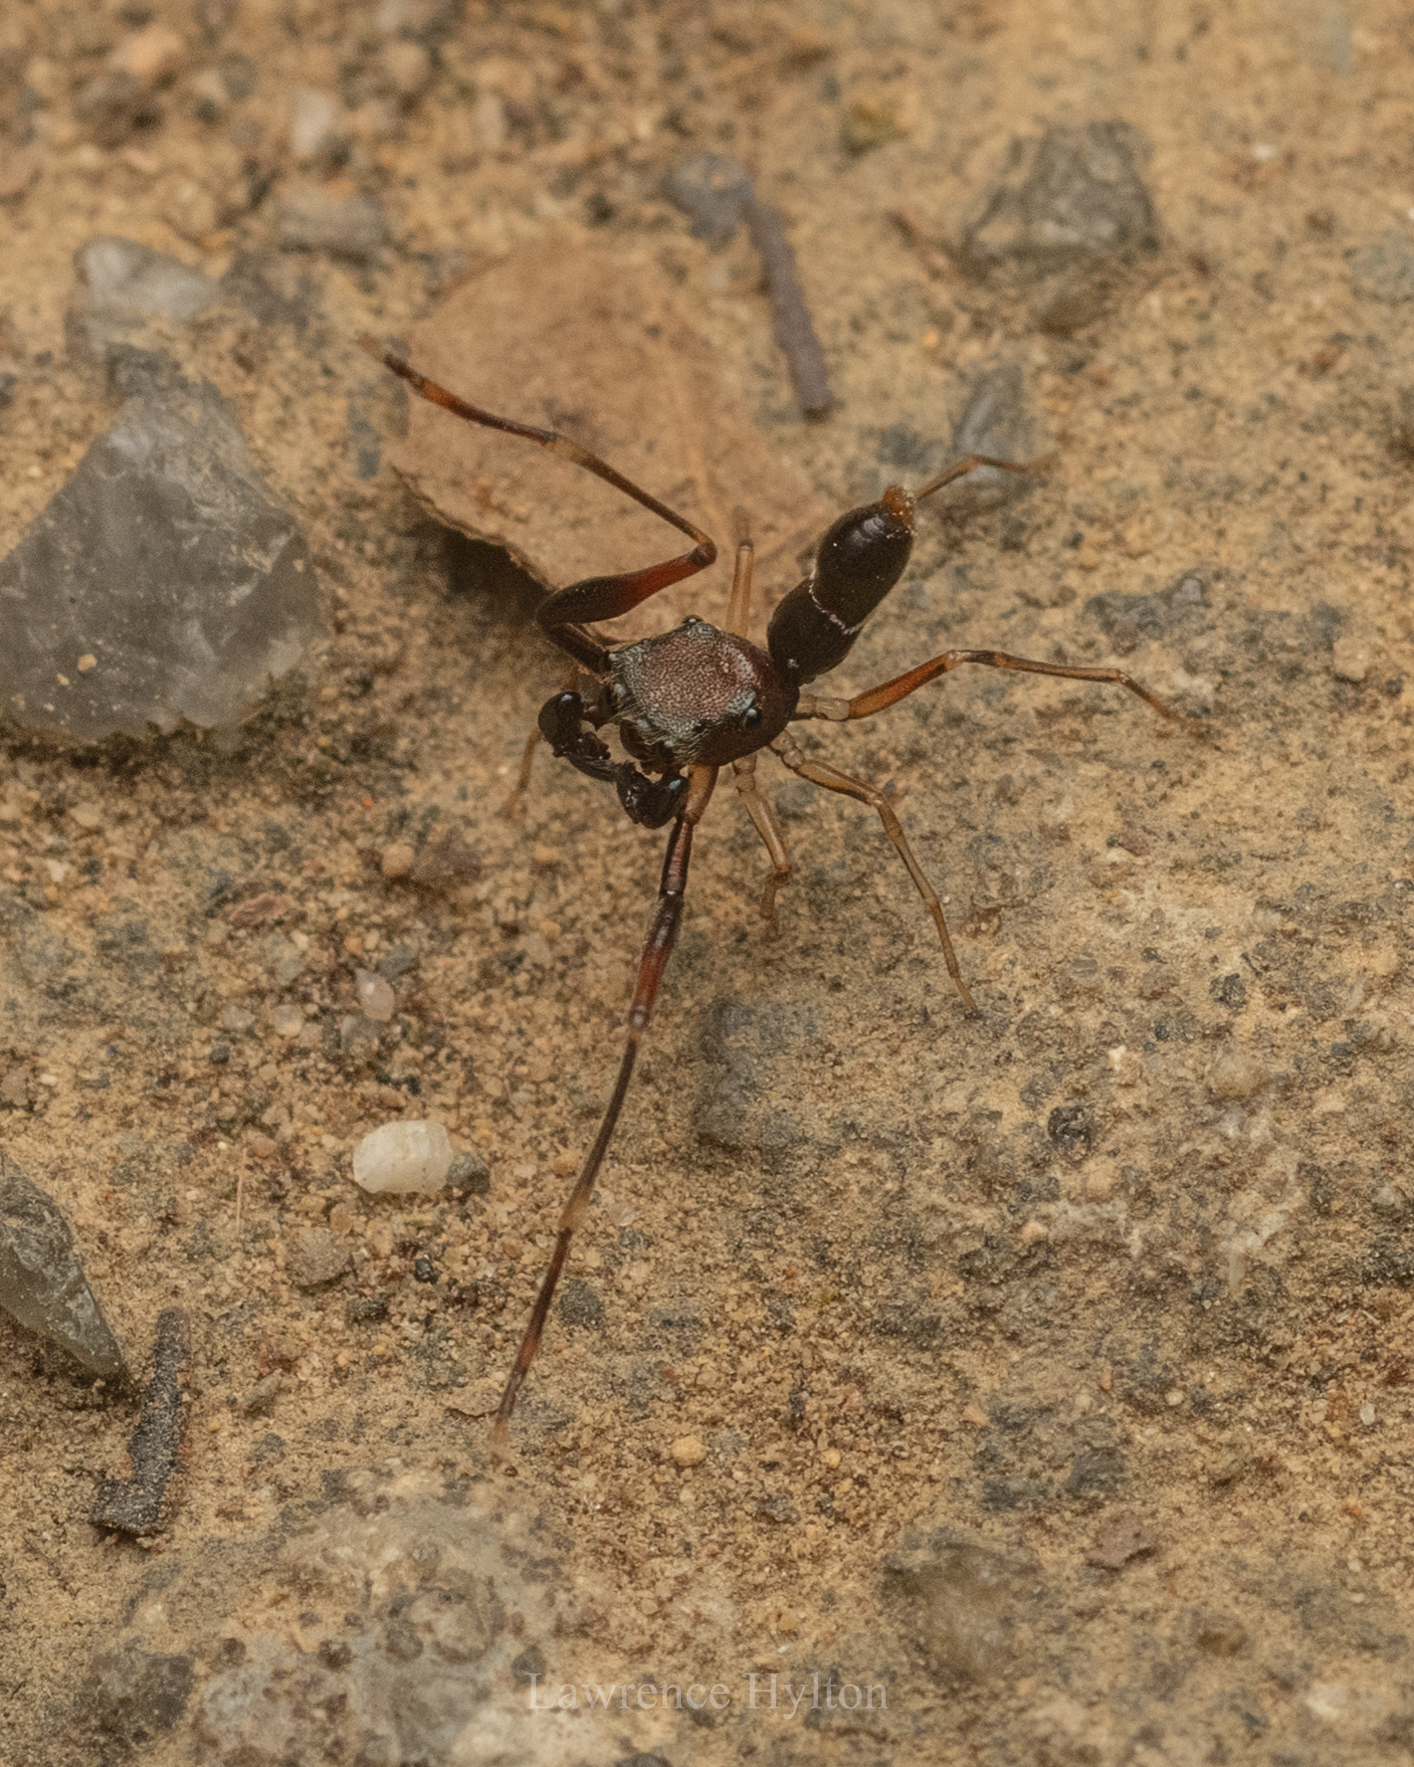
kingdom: Animalia
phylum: Arthropoda
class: Arachnida
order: Araneae
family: Salticidae
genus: Synagelides
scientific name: Synagelides longus
